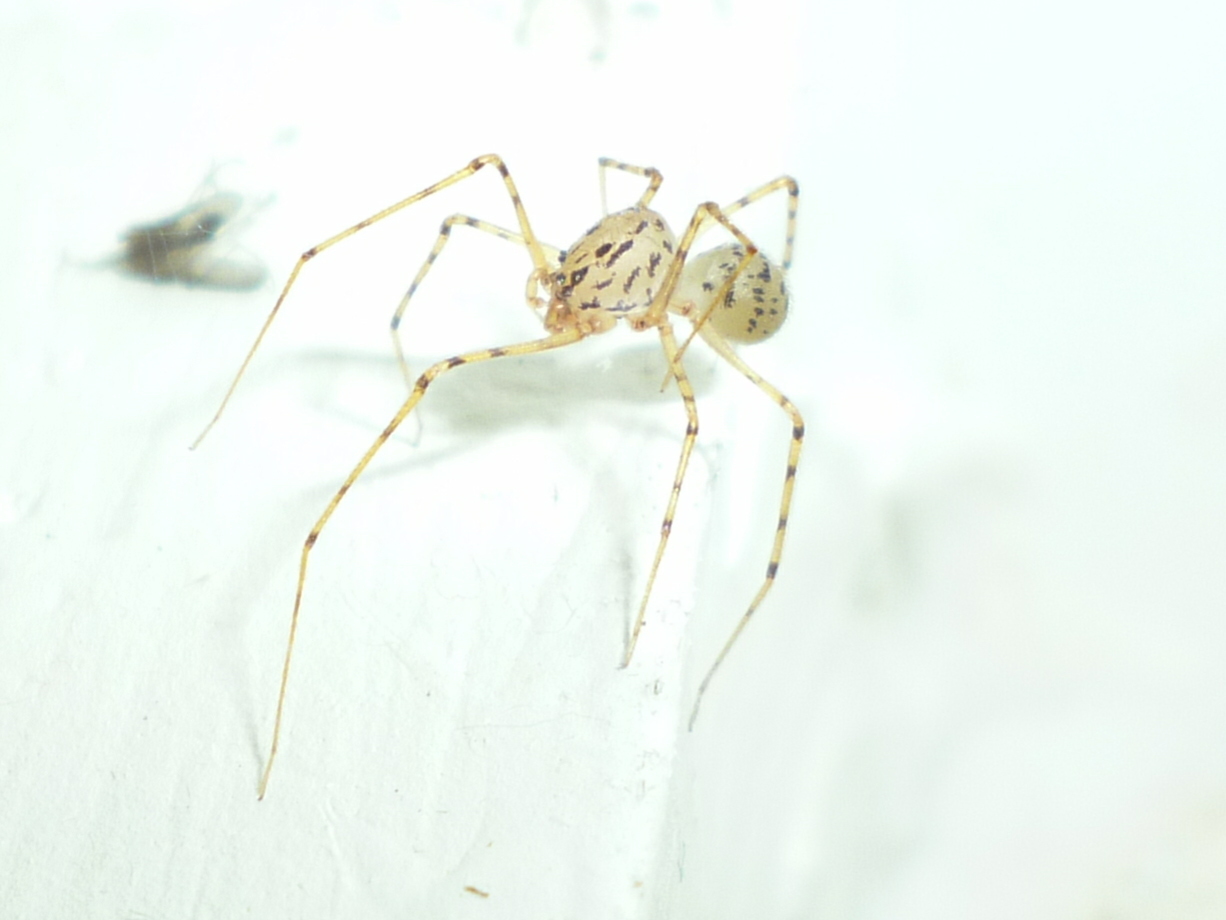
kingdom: Animalia
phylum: Arthropoda
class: Arachnida
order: Araneae
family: Scytodidae
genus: Scytodes
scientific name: Scytodes thoracica
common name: Spitting spider
